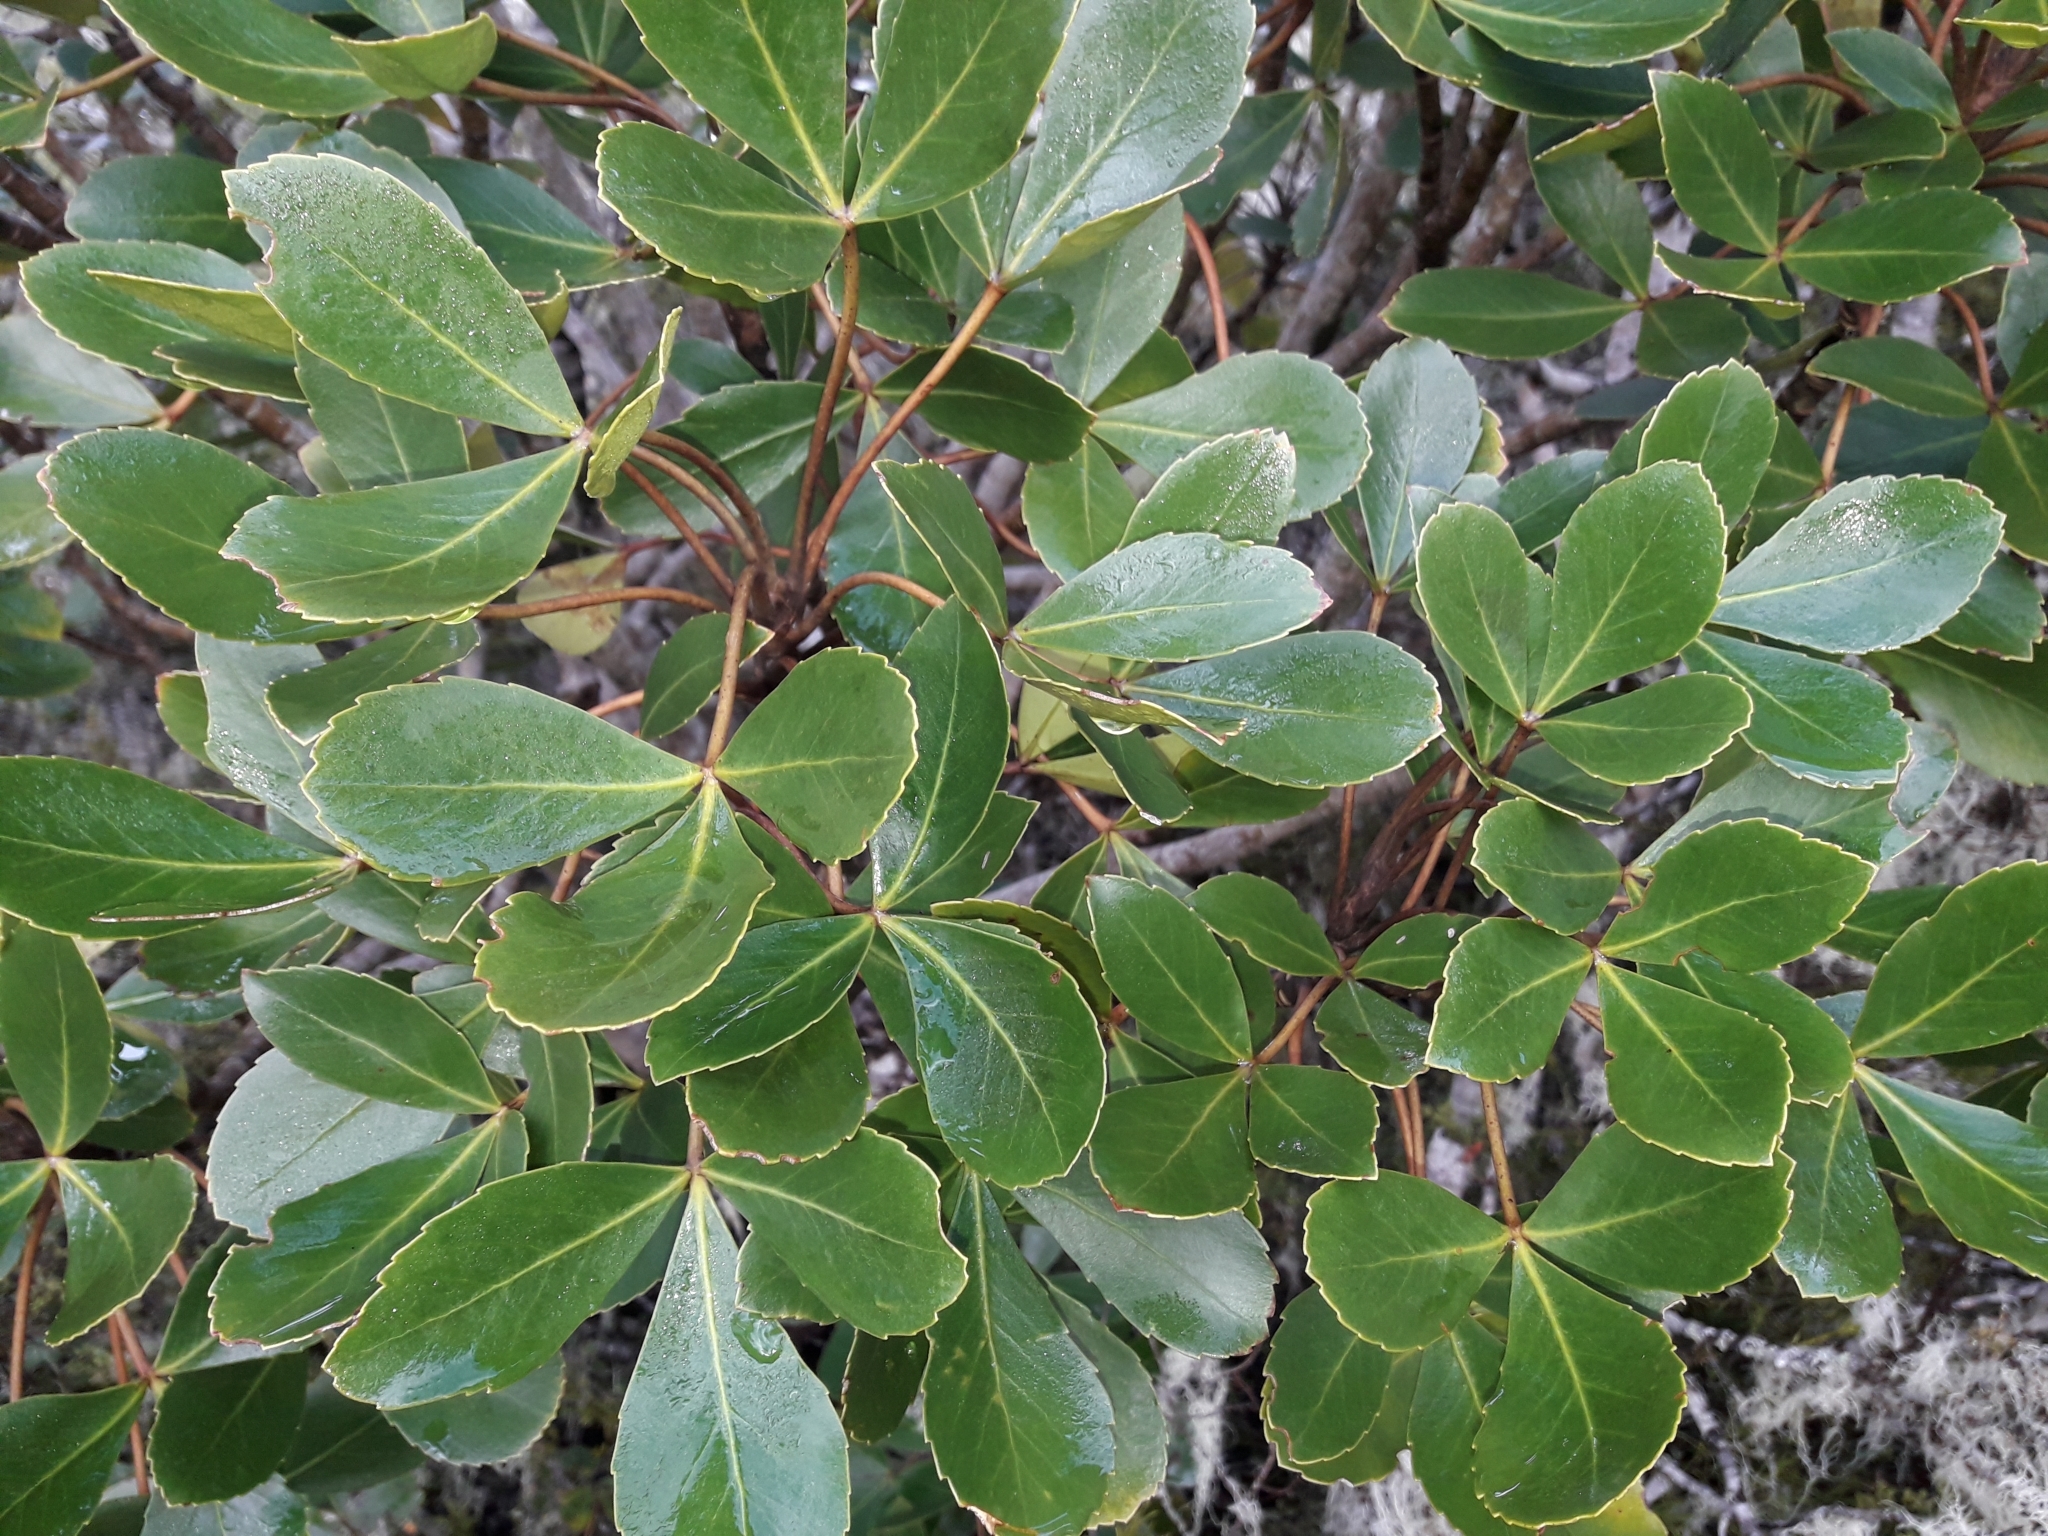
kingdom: Plantae
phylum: Tracheophyta
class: Magnoliopsida
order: Apiales
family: Araliaceae
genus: Neopanax
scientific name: Neopanax colensoi
